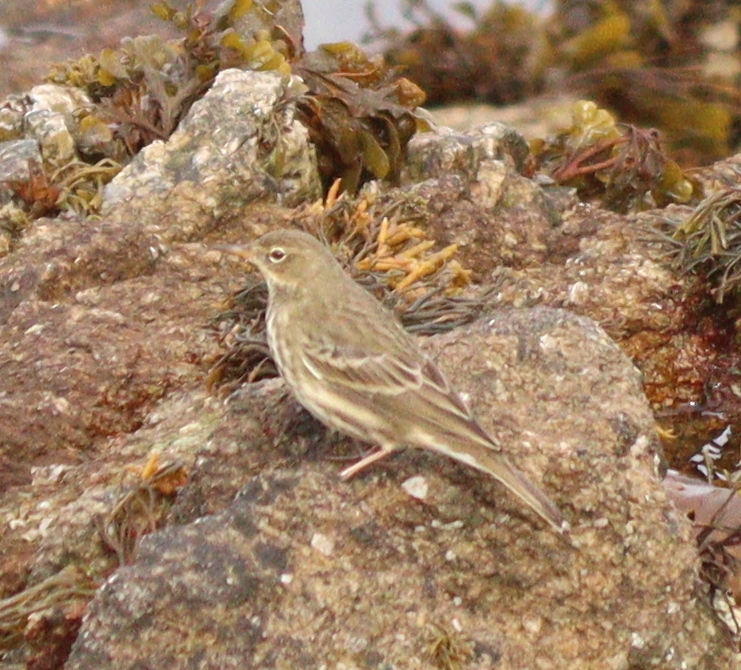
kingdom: Animalia
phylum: Chordata
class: Aves
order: Passeriformes
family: Motacillidae
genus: Anthus
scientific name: Anthus petrosus
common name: Eurasian rock pipit
